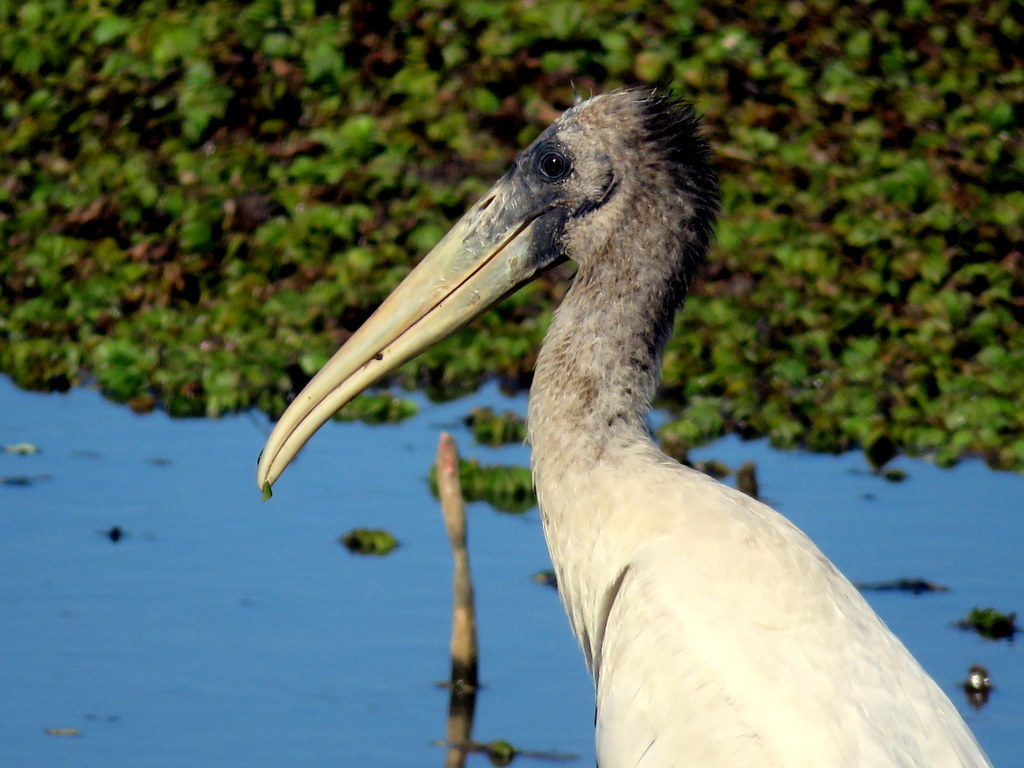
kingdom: Animalia
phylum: Chordata
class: Aves
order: Ciconiiformes
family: Ciconiidae
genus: Mycteria
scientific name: Mycteria americana
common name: Wood stork
